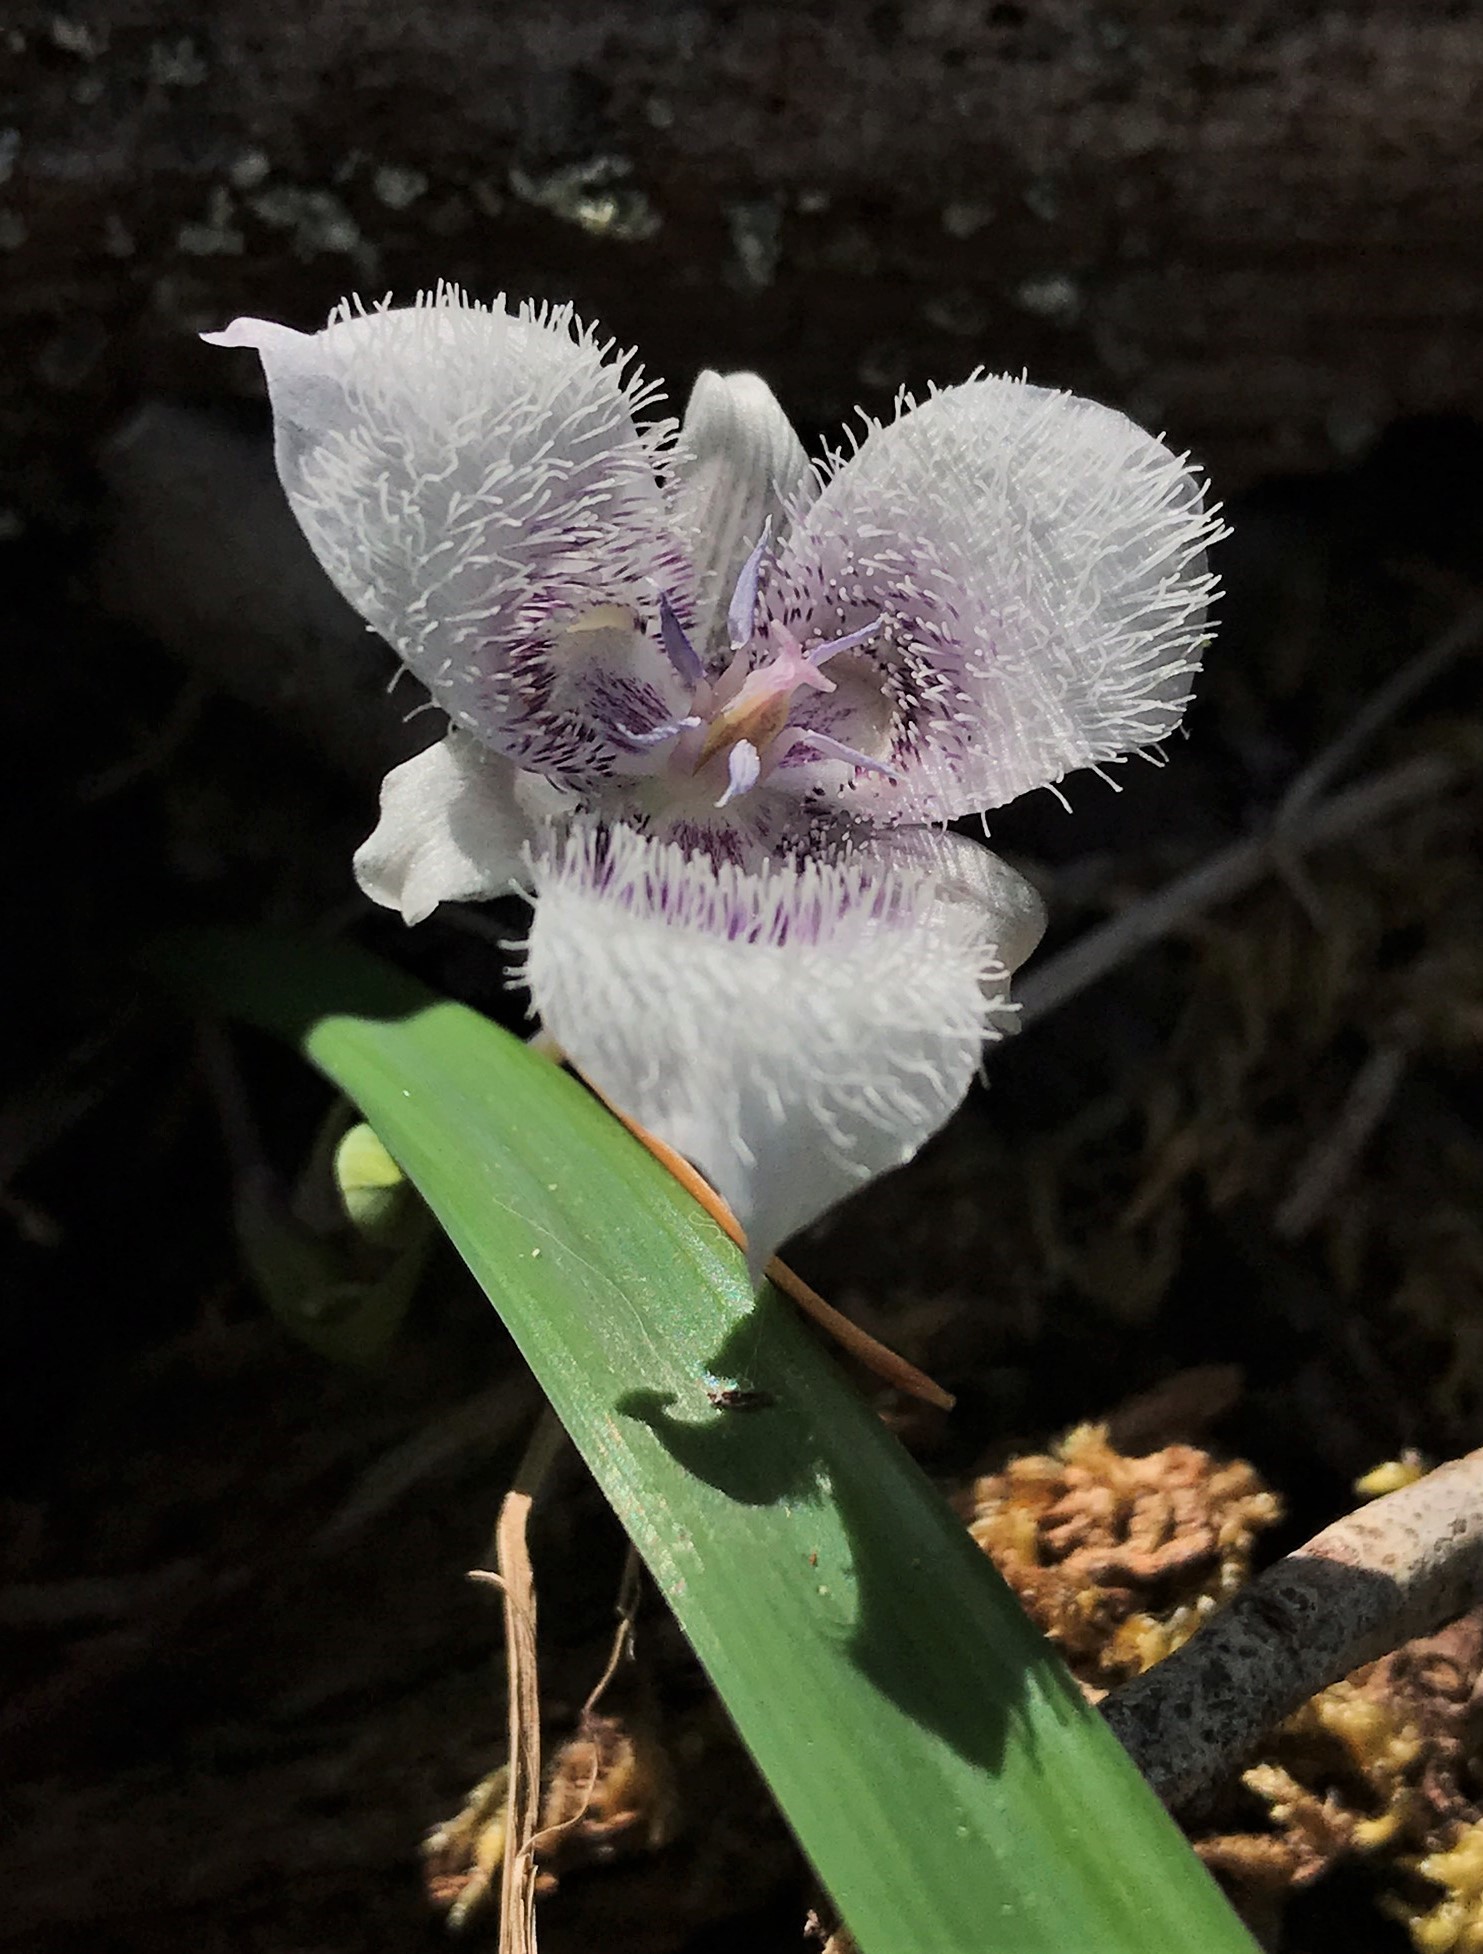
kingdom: Plantae
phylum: Tracheophyta
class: Liliopsida
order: Liliales
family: Liliaceae
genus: Calochortus
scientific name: Calochortus tolmiei
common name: Pussy-ears
